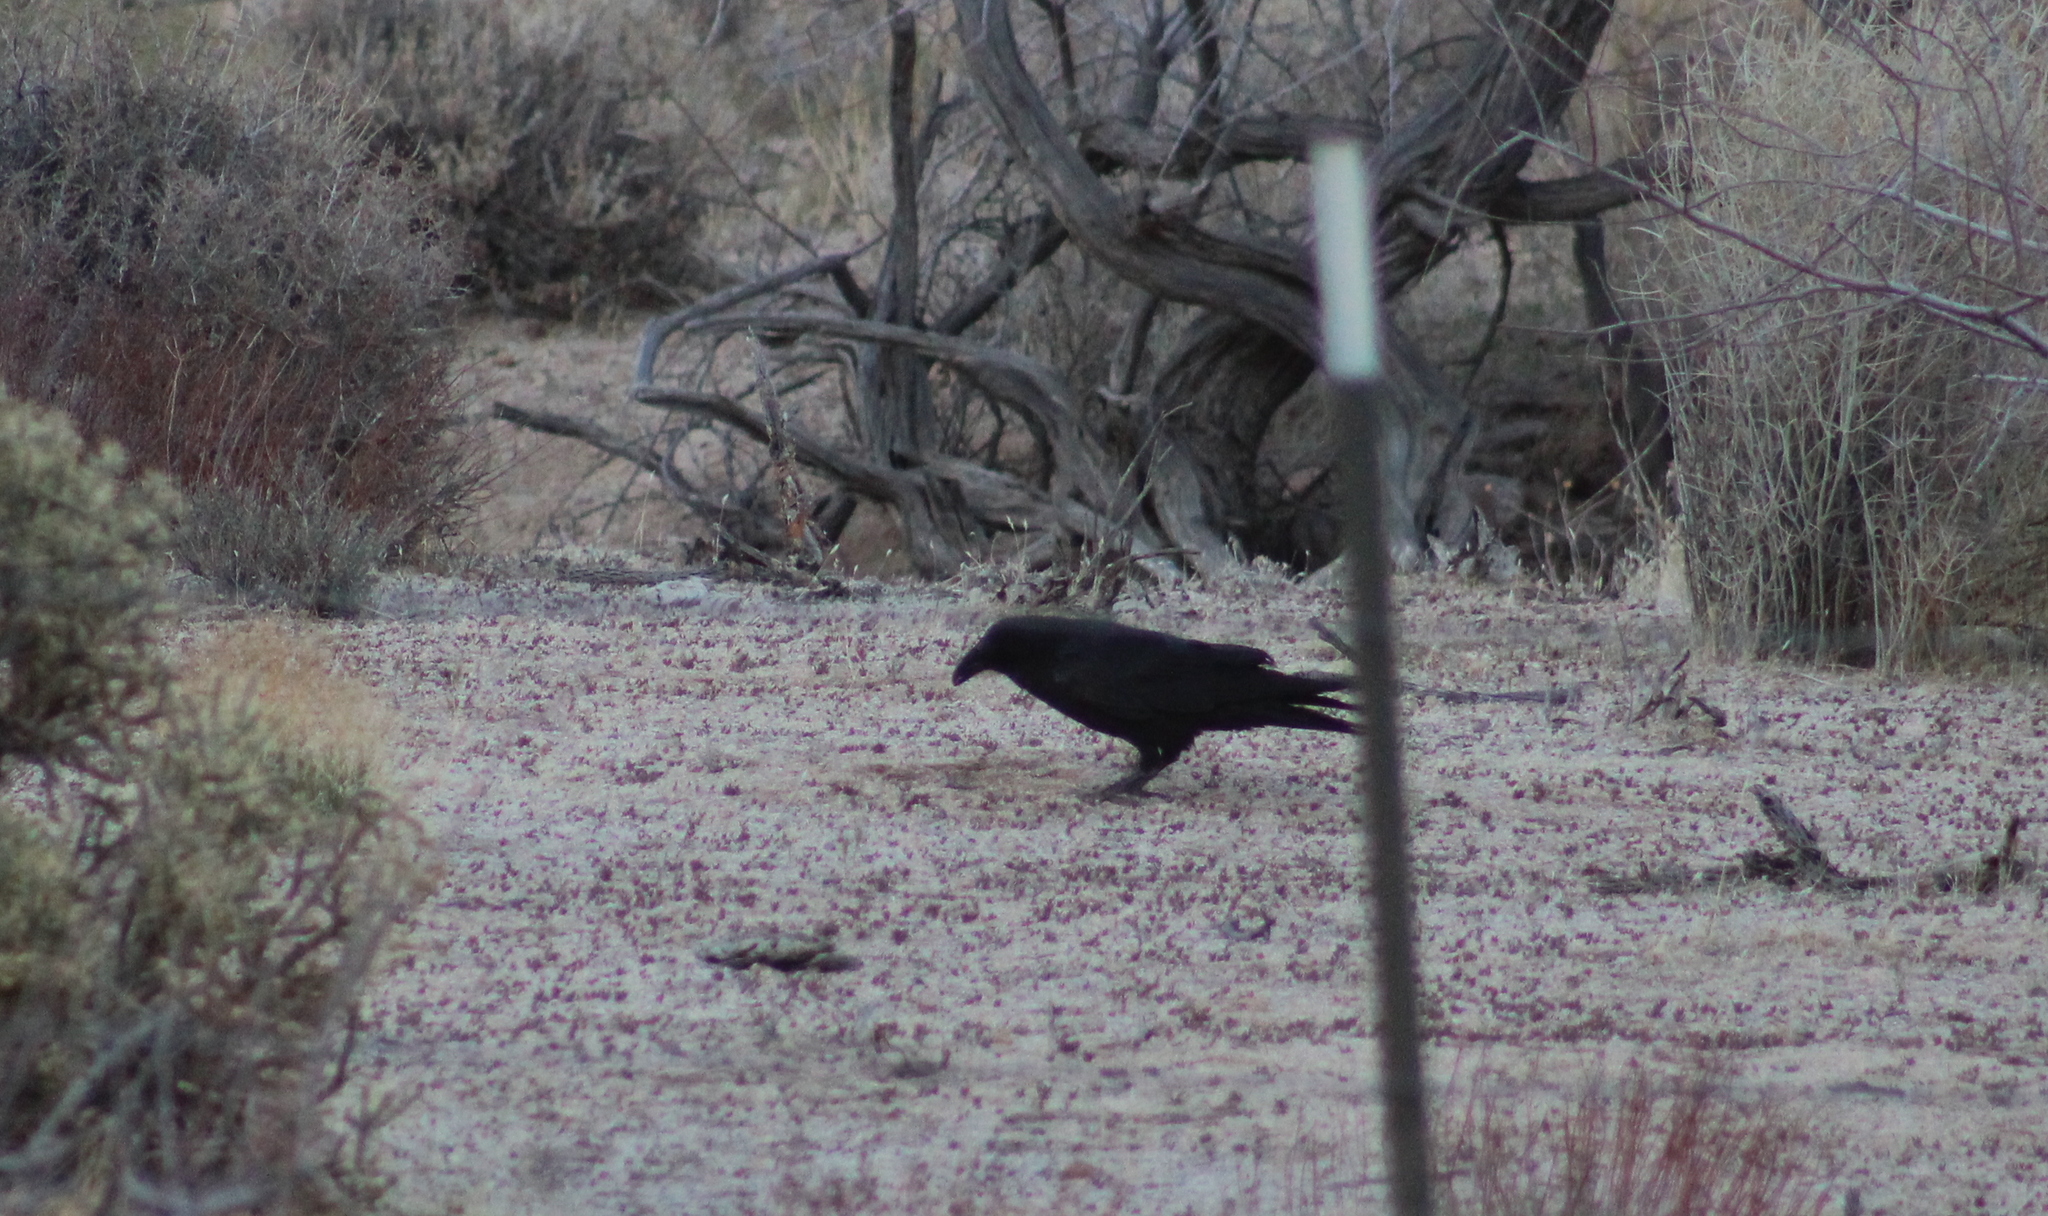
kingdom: Animalia
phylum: Chordata
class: Aves
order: Passeriformes
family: Corvidae
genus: Corvus
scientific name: Corvus corax
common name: Common raven
